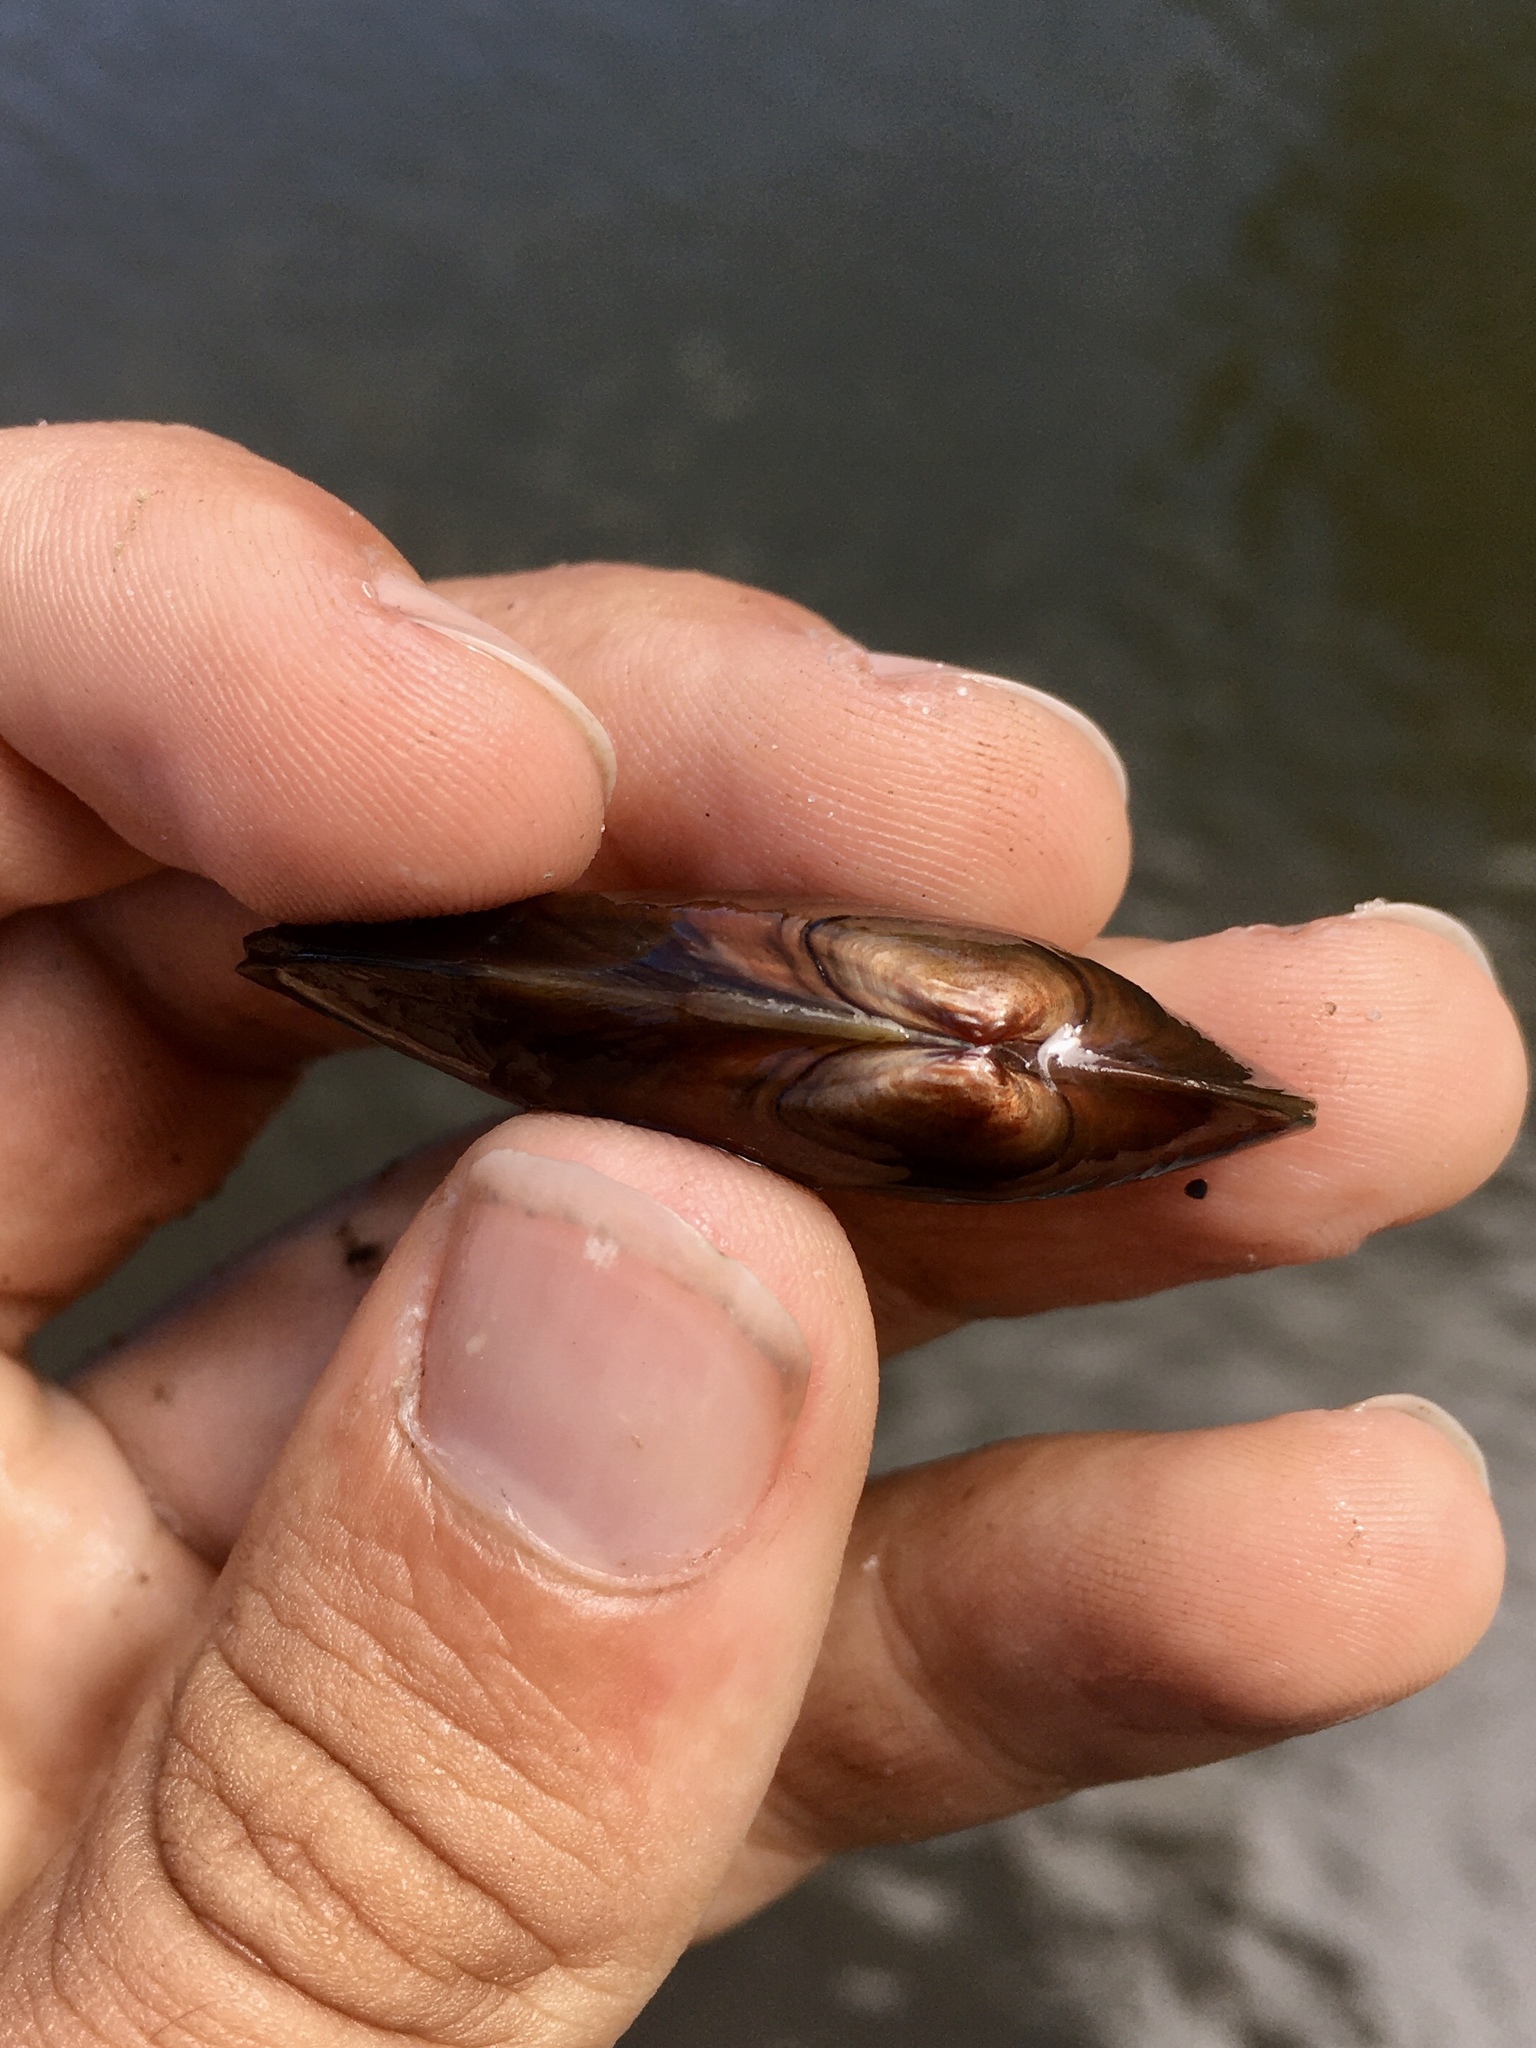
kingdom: Animalia
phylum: Mollusca
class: Bivalvia
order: Unionida
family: Unionidae
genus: Ligumia
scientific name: Ligumia recta
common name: Black sandshell
